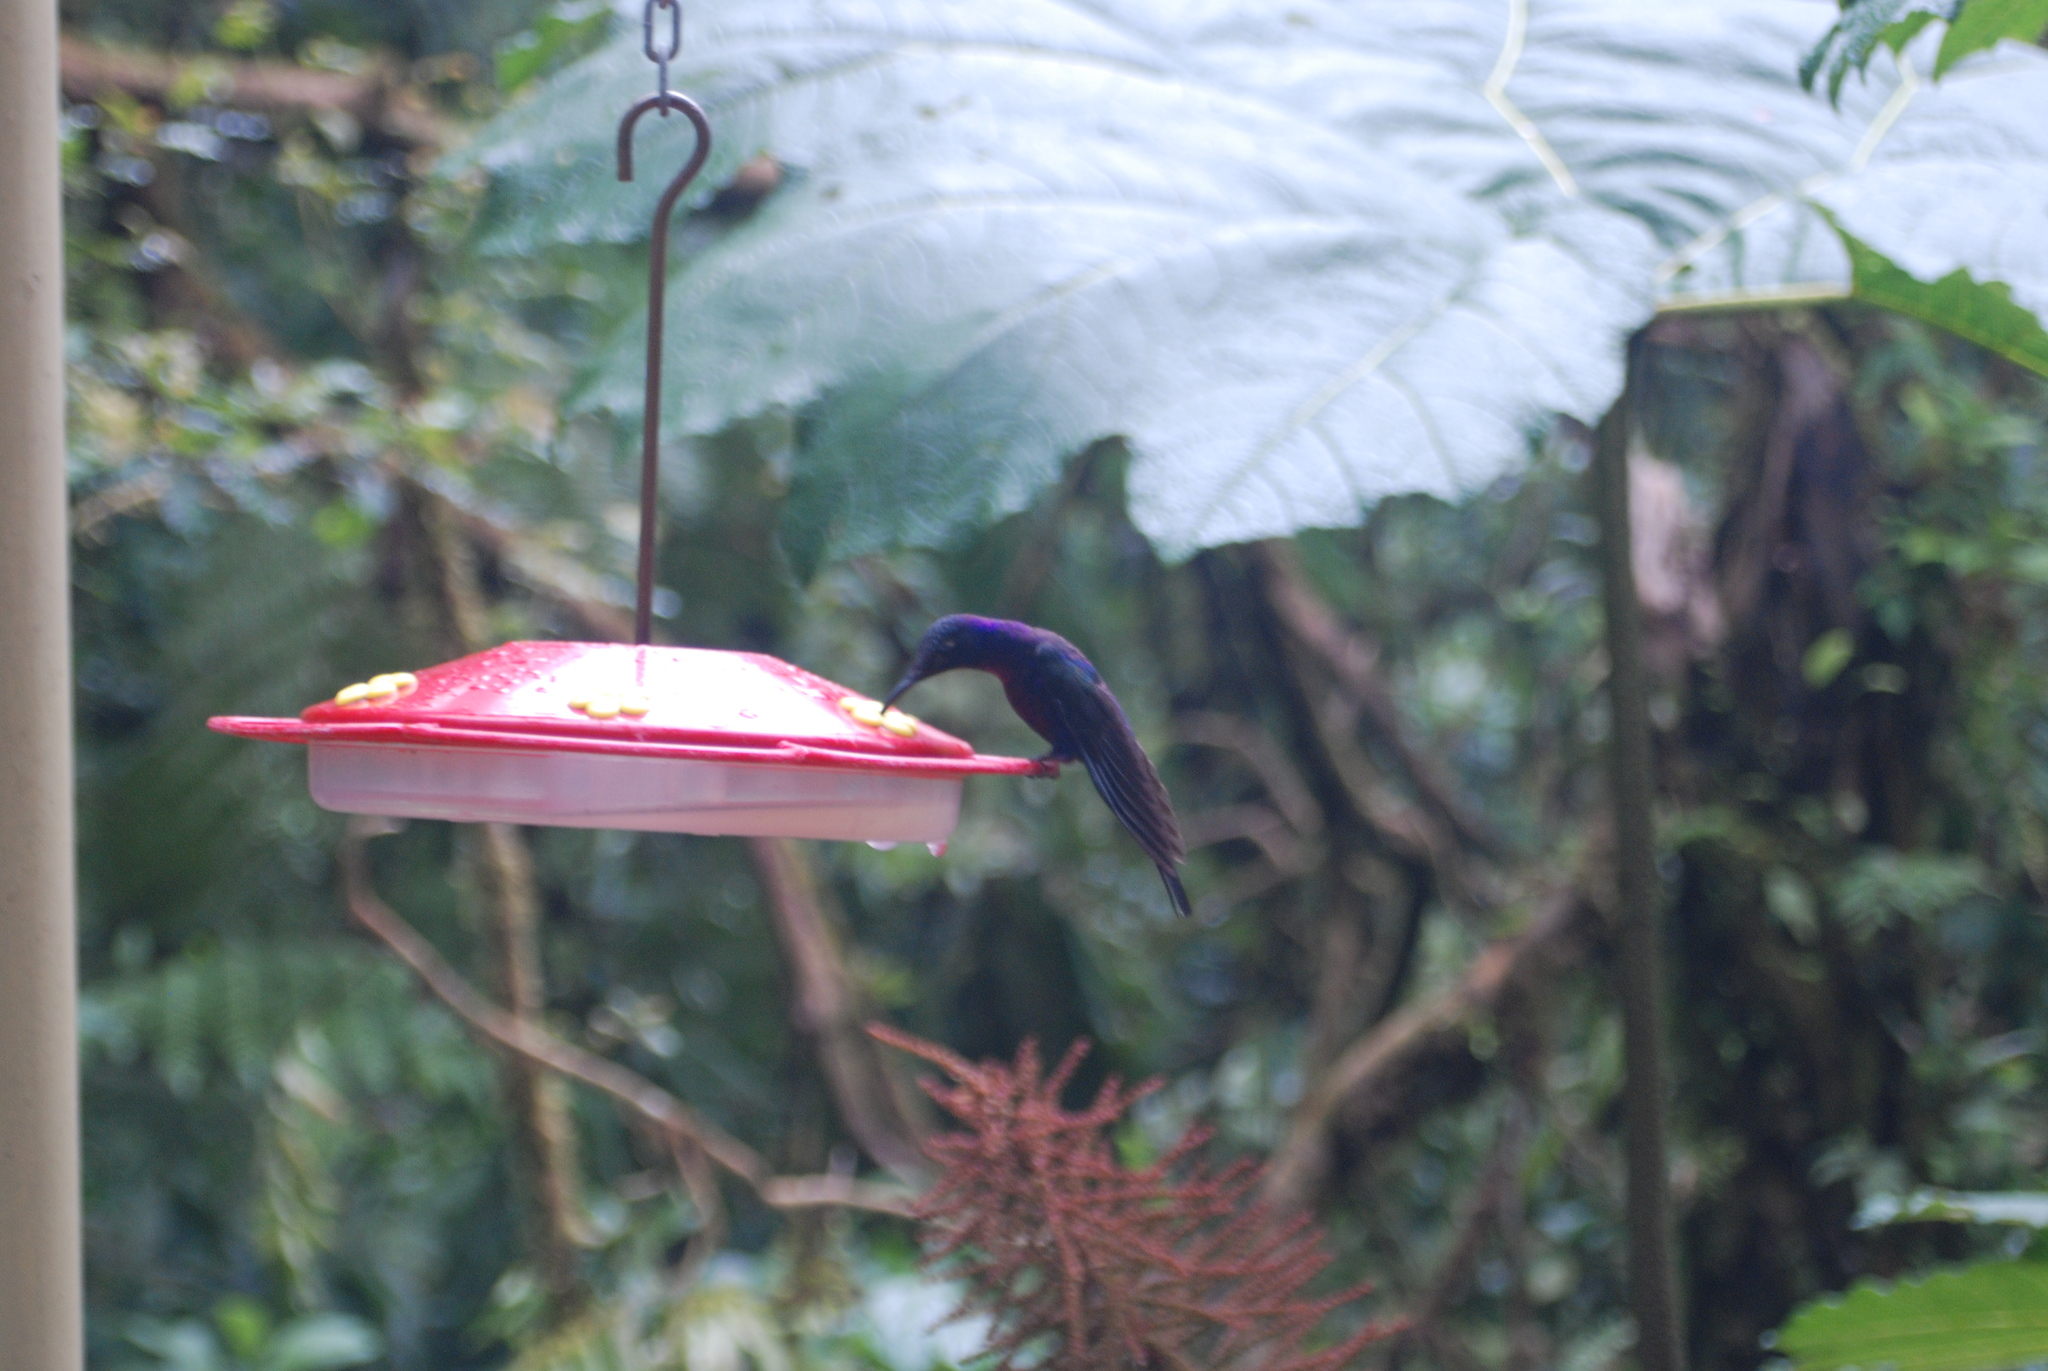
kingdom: Animalia
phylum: Chordata
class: Aves
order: Apodiformes
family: Trochilidae
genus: Campylopterus
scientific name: Campylopterus hemileucurus
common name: Violet sabrewing
